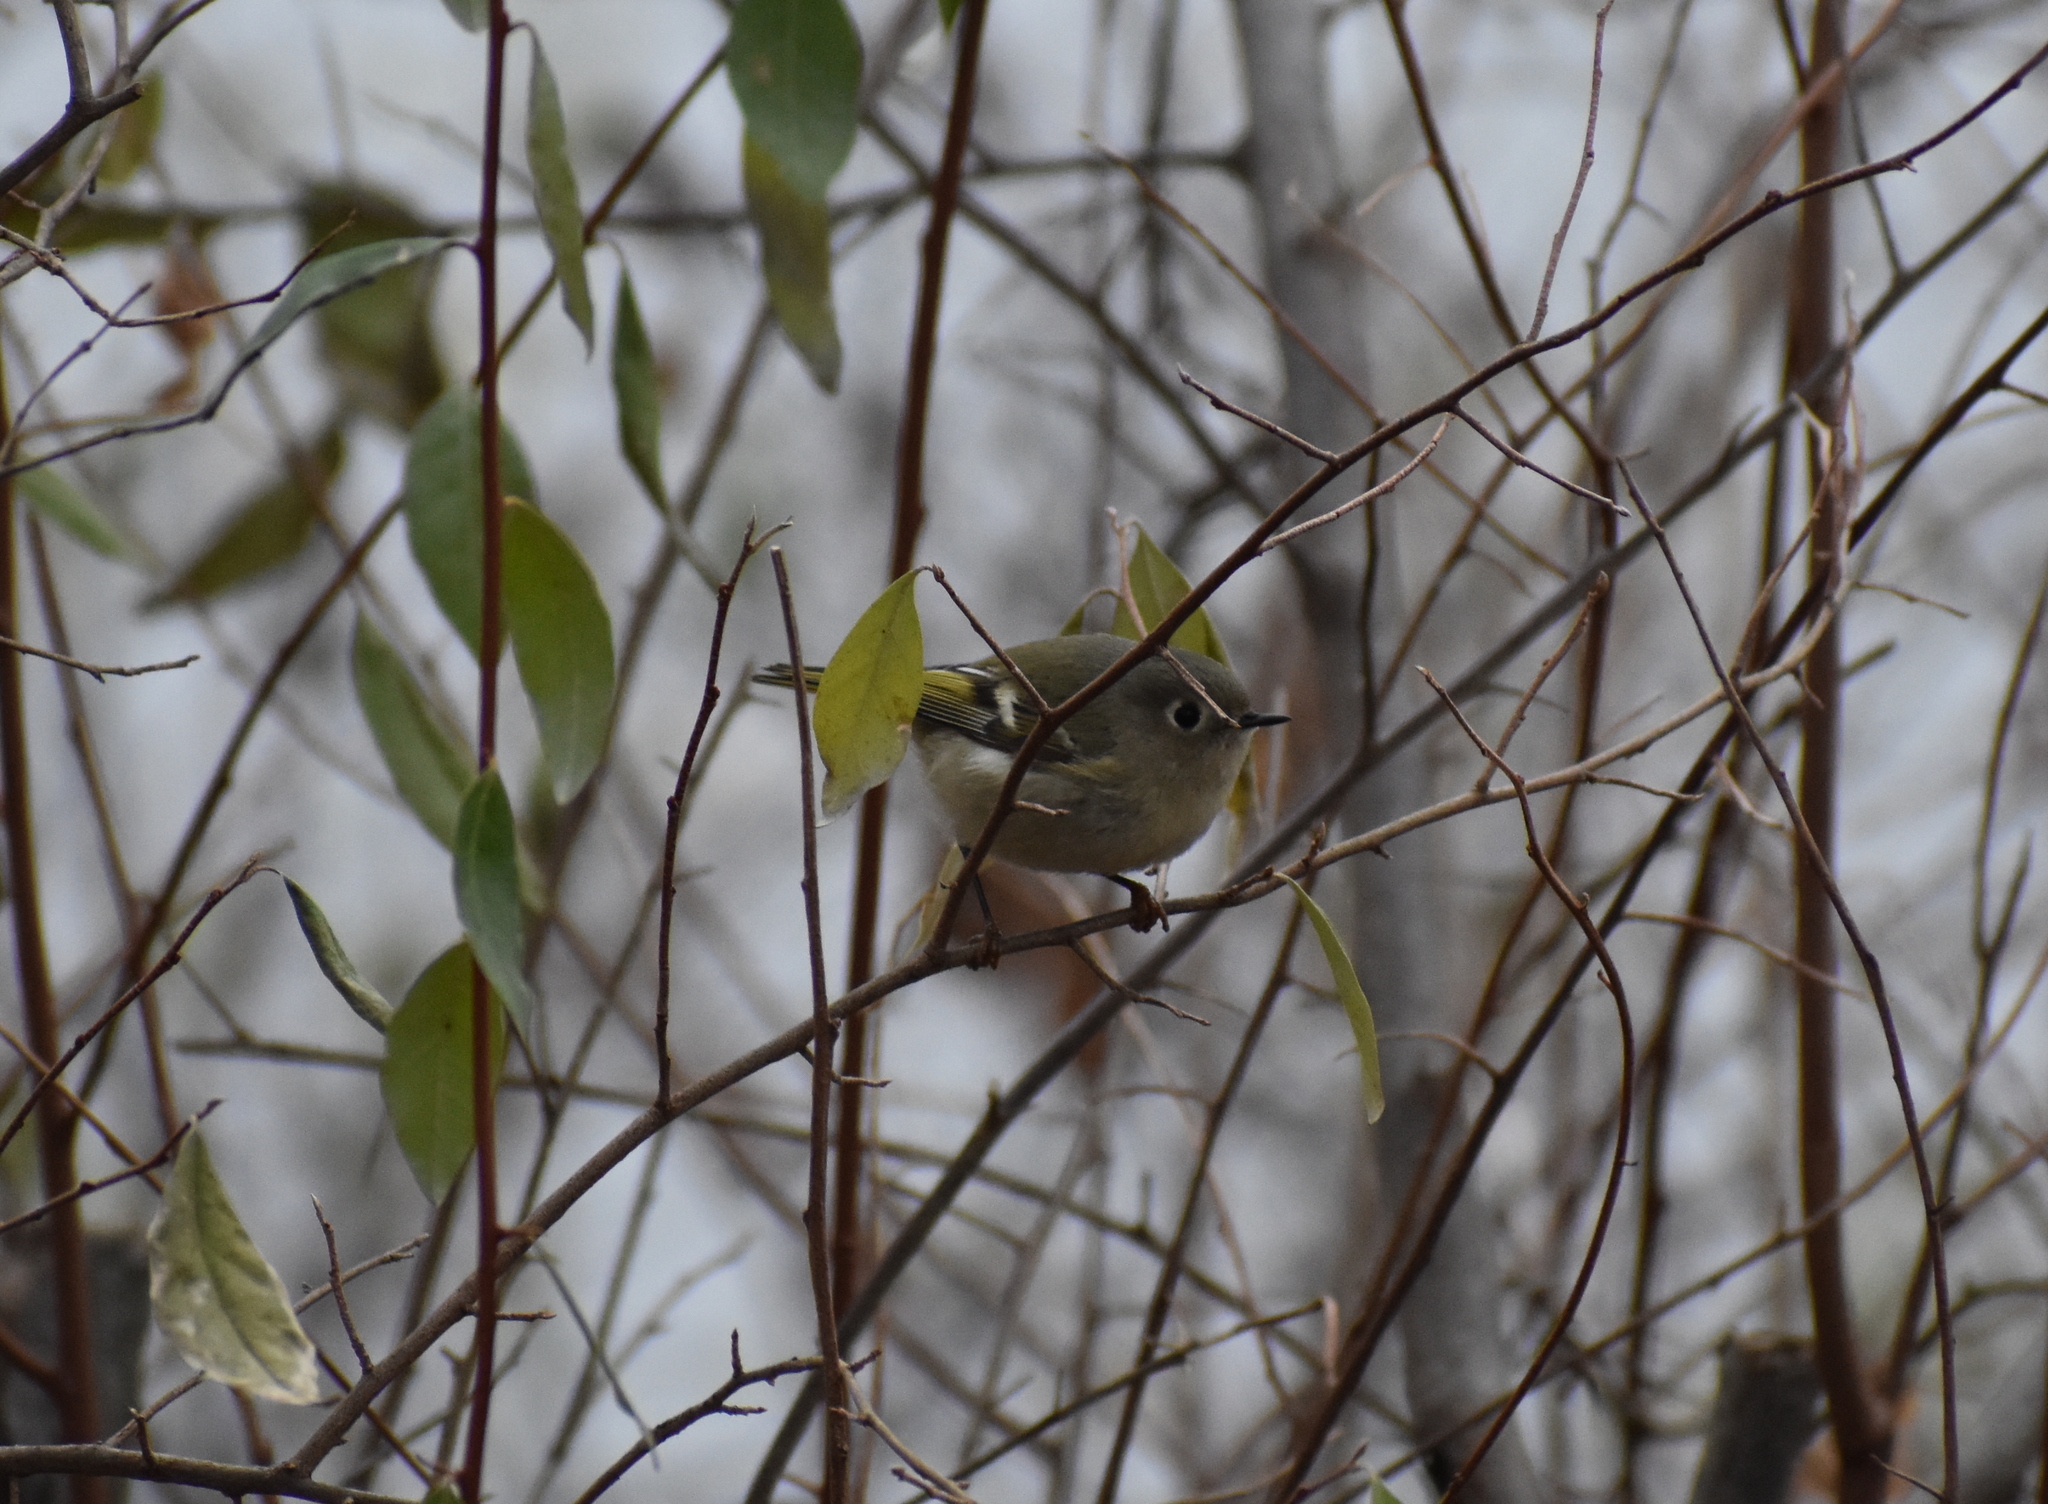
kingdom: Animalia
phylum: Chordata
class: Aves
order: Passeriformes
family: Regulidae
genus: Regulus
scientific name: Regulus calendula
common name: Ruby-crowned kinglet
